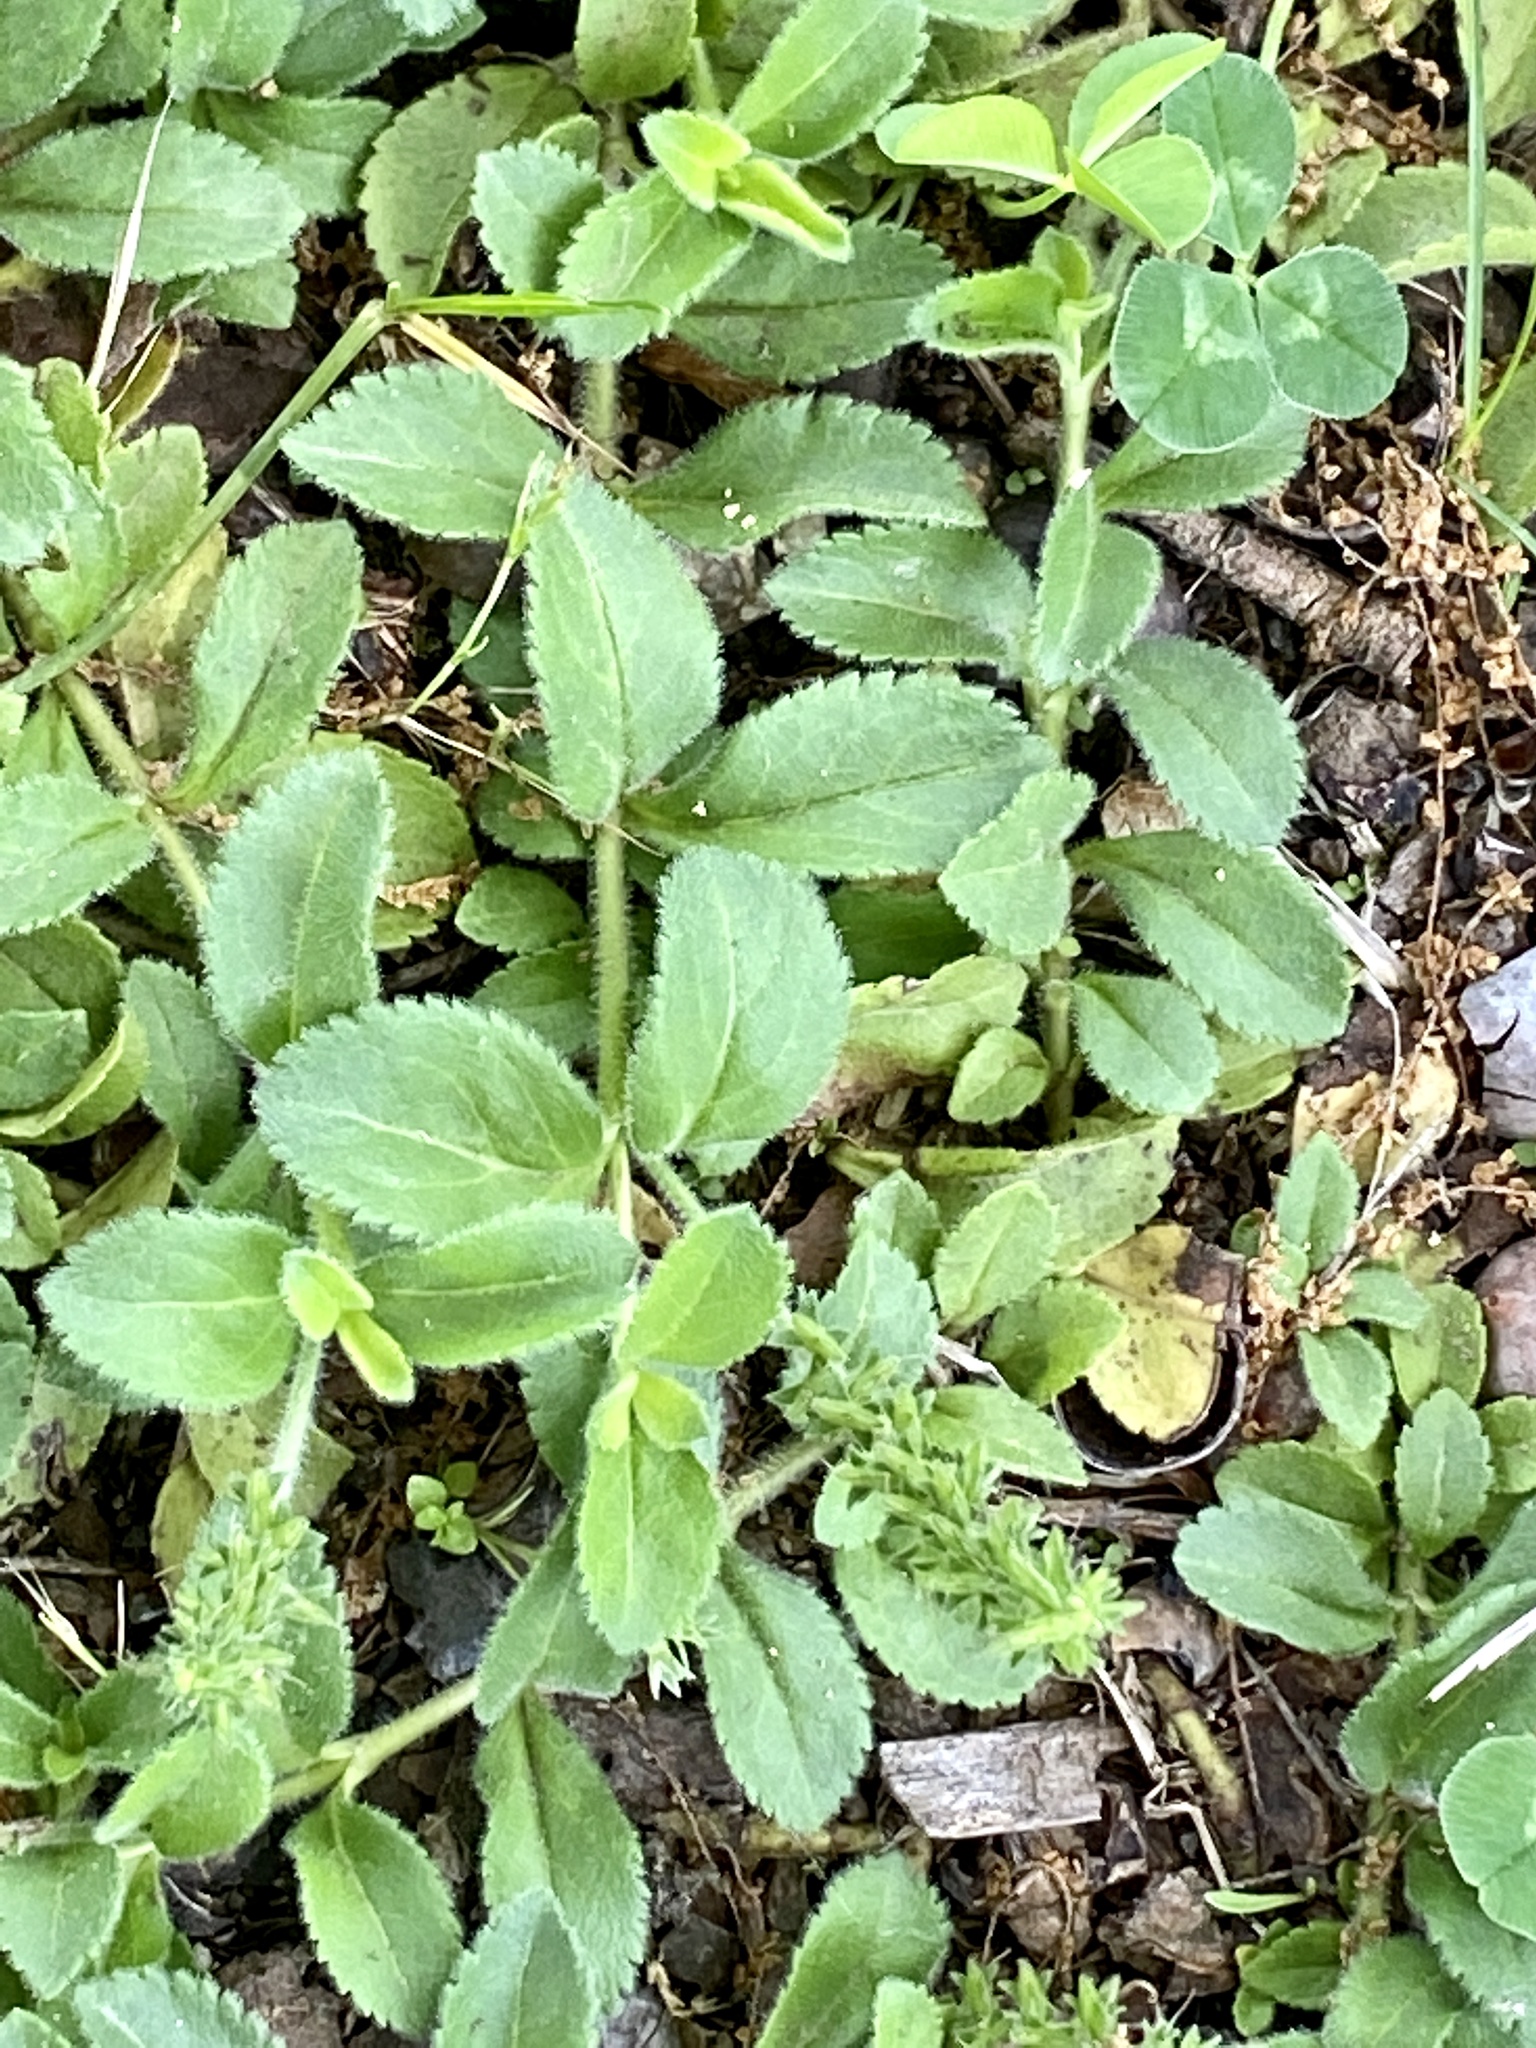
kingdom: Plantae
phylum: Tracheophyta
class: Magnoliopsida
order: Lamiales
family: Plantaginaceae
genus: Veronica
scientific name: Veronica officinalis
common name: Common speedwell
